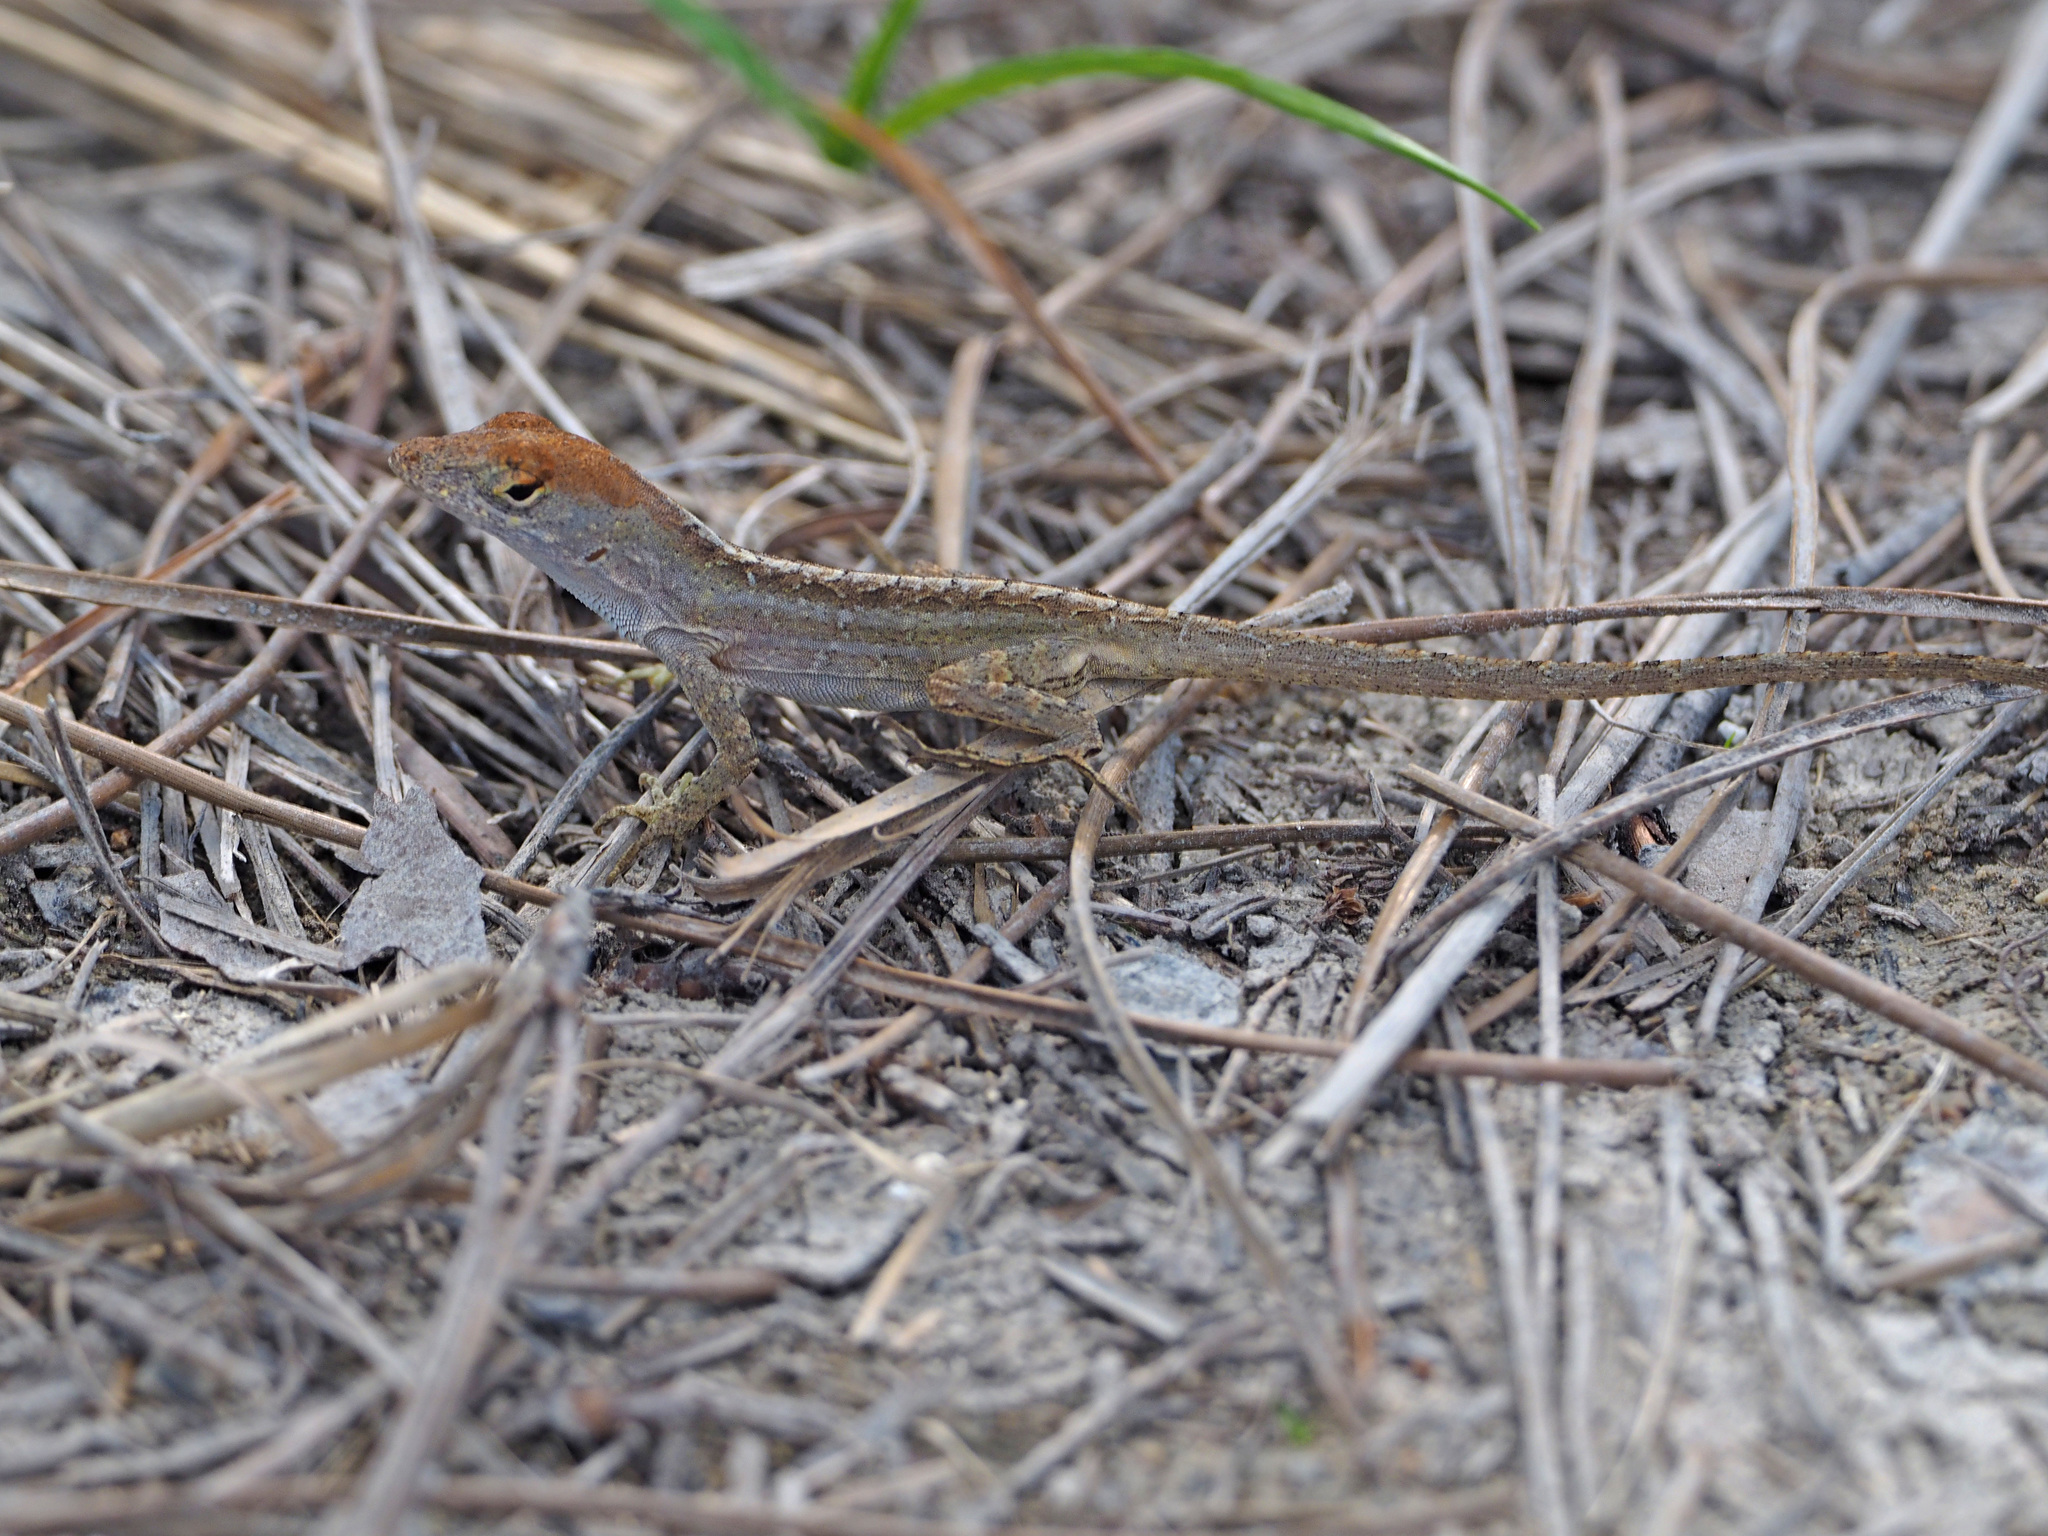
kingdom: Animalia
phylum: Chordata
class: Squamata
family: Dactyloidae
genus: Anolis
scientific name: Anolis sagrei
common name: Brown anole
